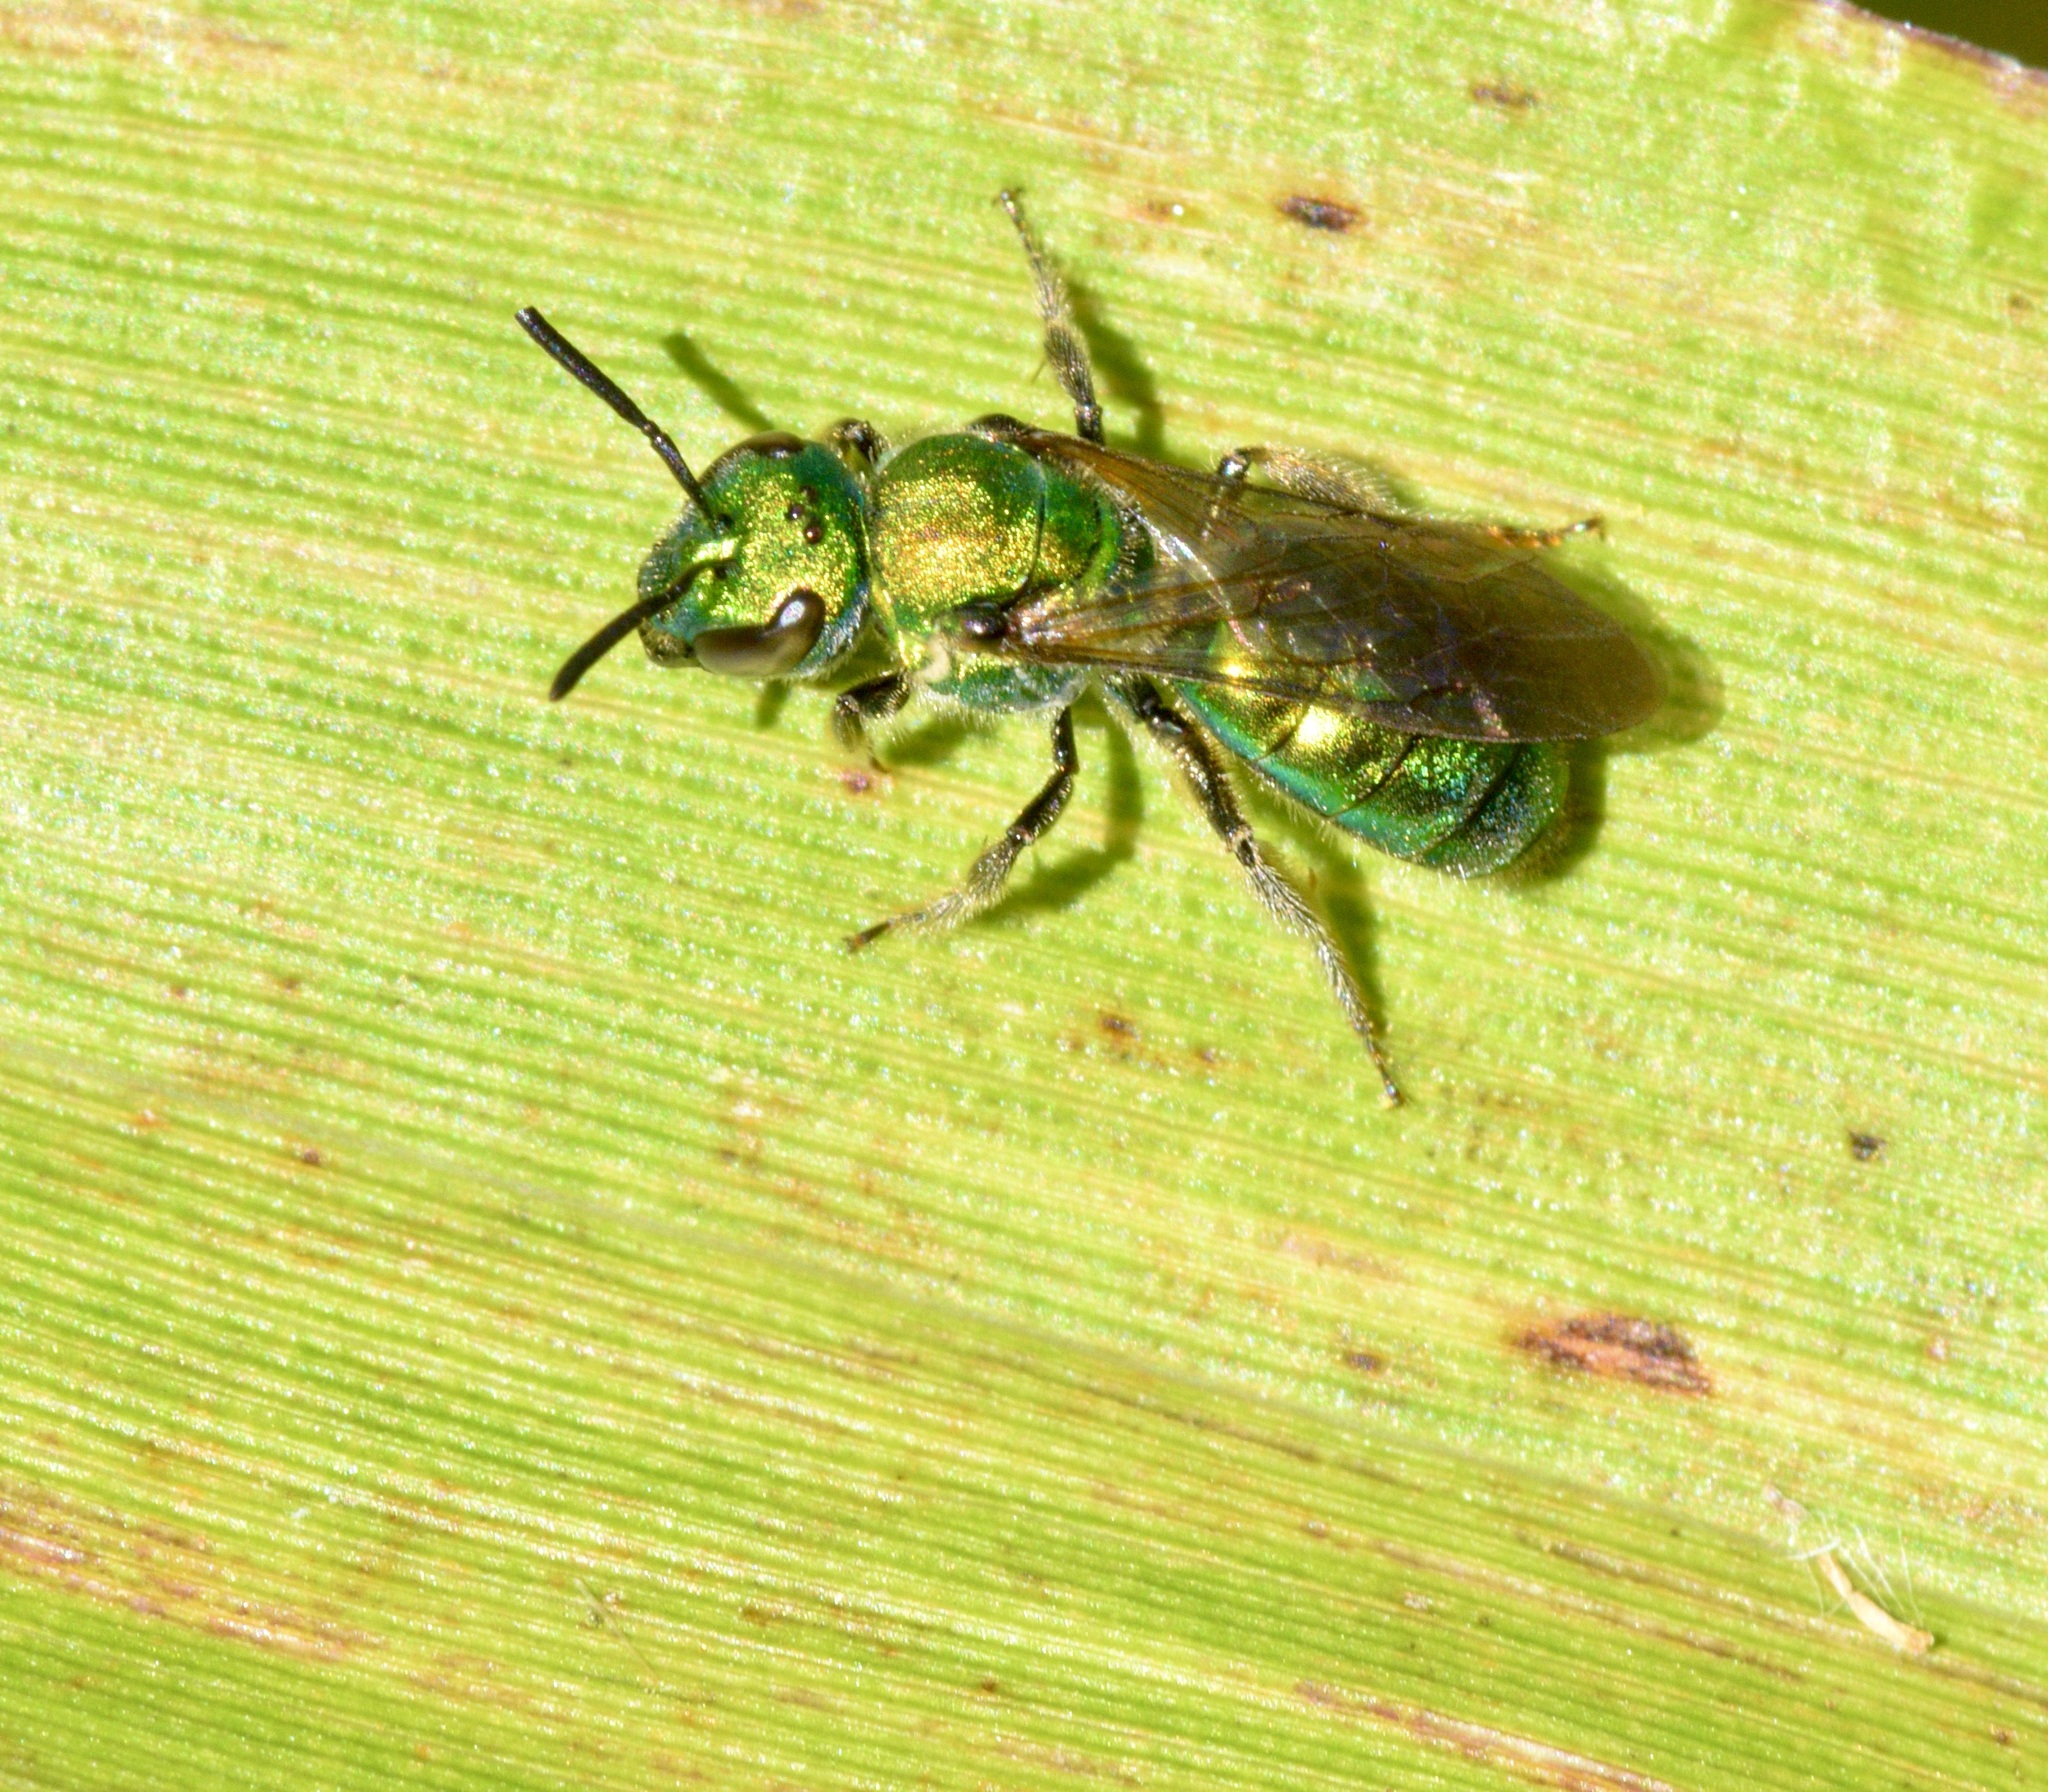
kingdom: Animalia
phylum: Arthropoda
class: Insecta
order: Hymenoptera
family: Halictidae
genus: Augochlora
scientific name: Augochlora pura
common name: Pure green sweat bee
